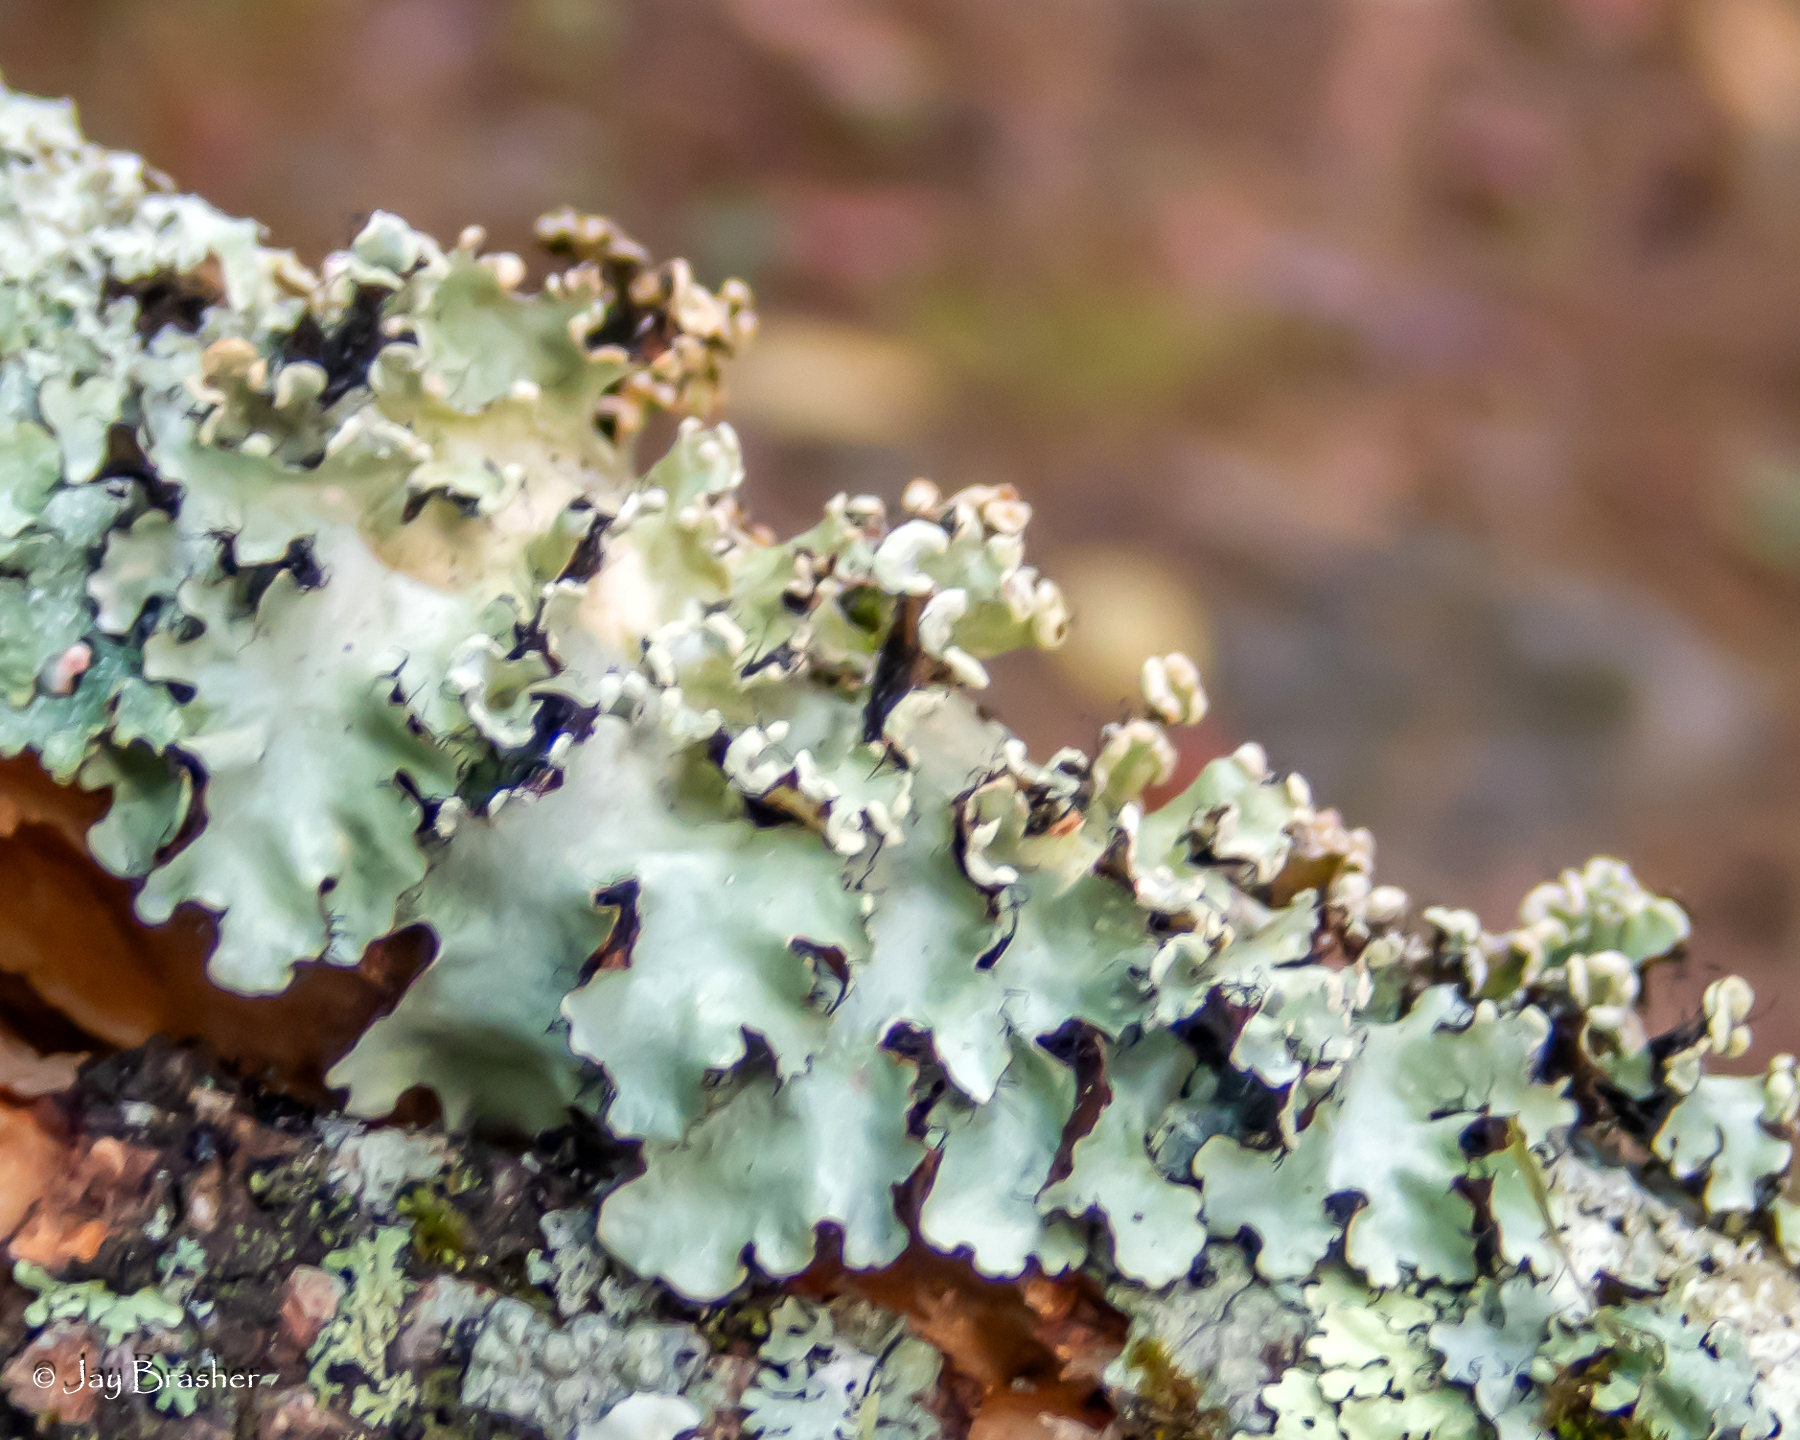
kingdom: Fungi
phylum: Ascomycota
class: Lecanoromycetes
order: Lecanorales
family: Parmeliaceae
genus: Parmotrema
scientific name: Parmotrema reticulatum
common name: Black sheet lichen
